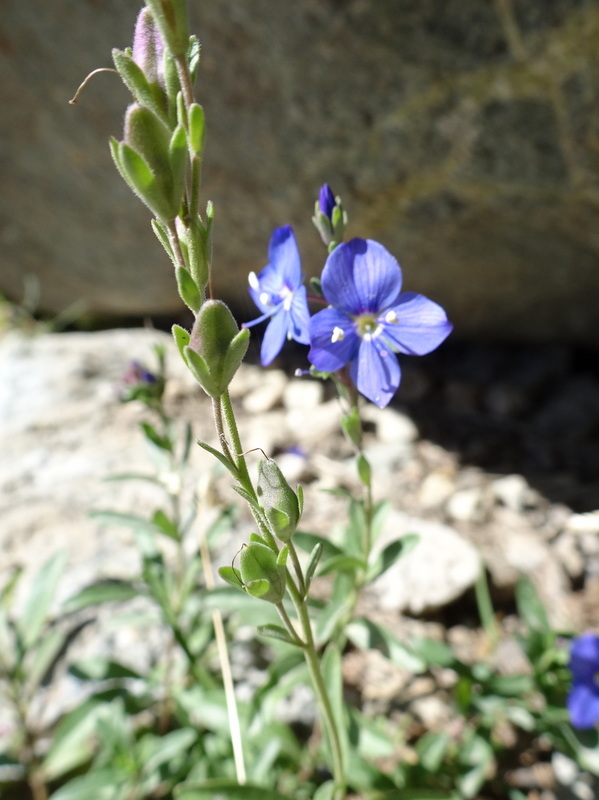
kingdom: Plantae
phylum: Tracheophyta
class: Magnoliopsida
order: Lamiales
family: Plantaginaceae
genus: Veronica
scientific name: Veronica fruticans
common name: Rock speedwell
